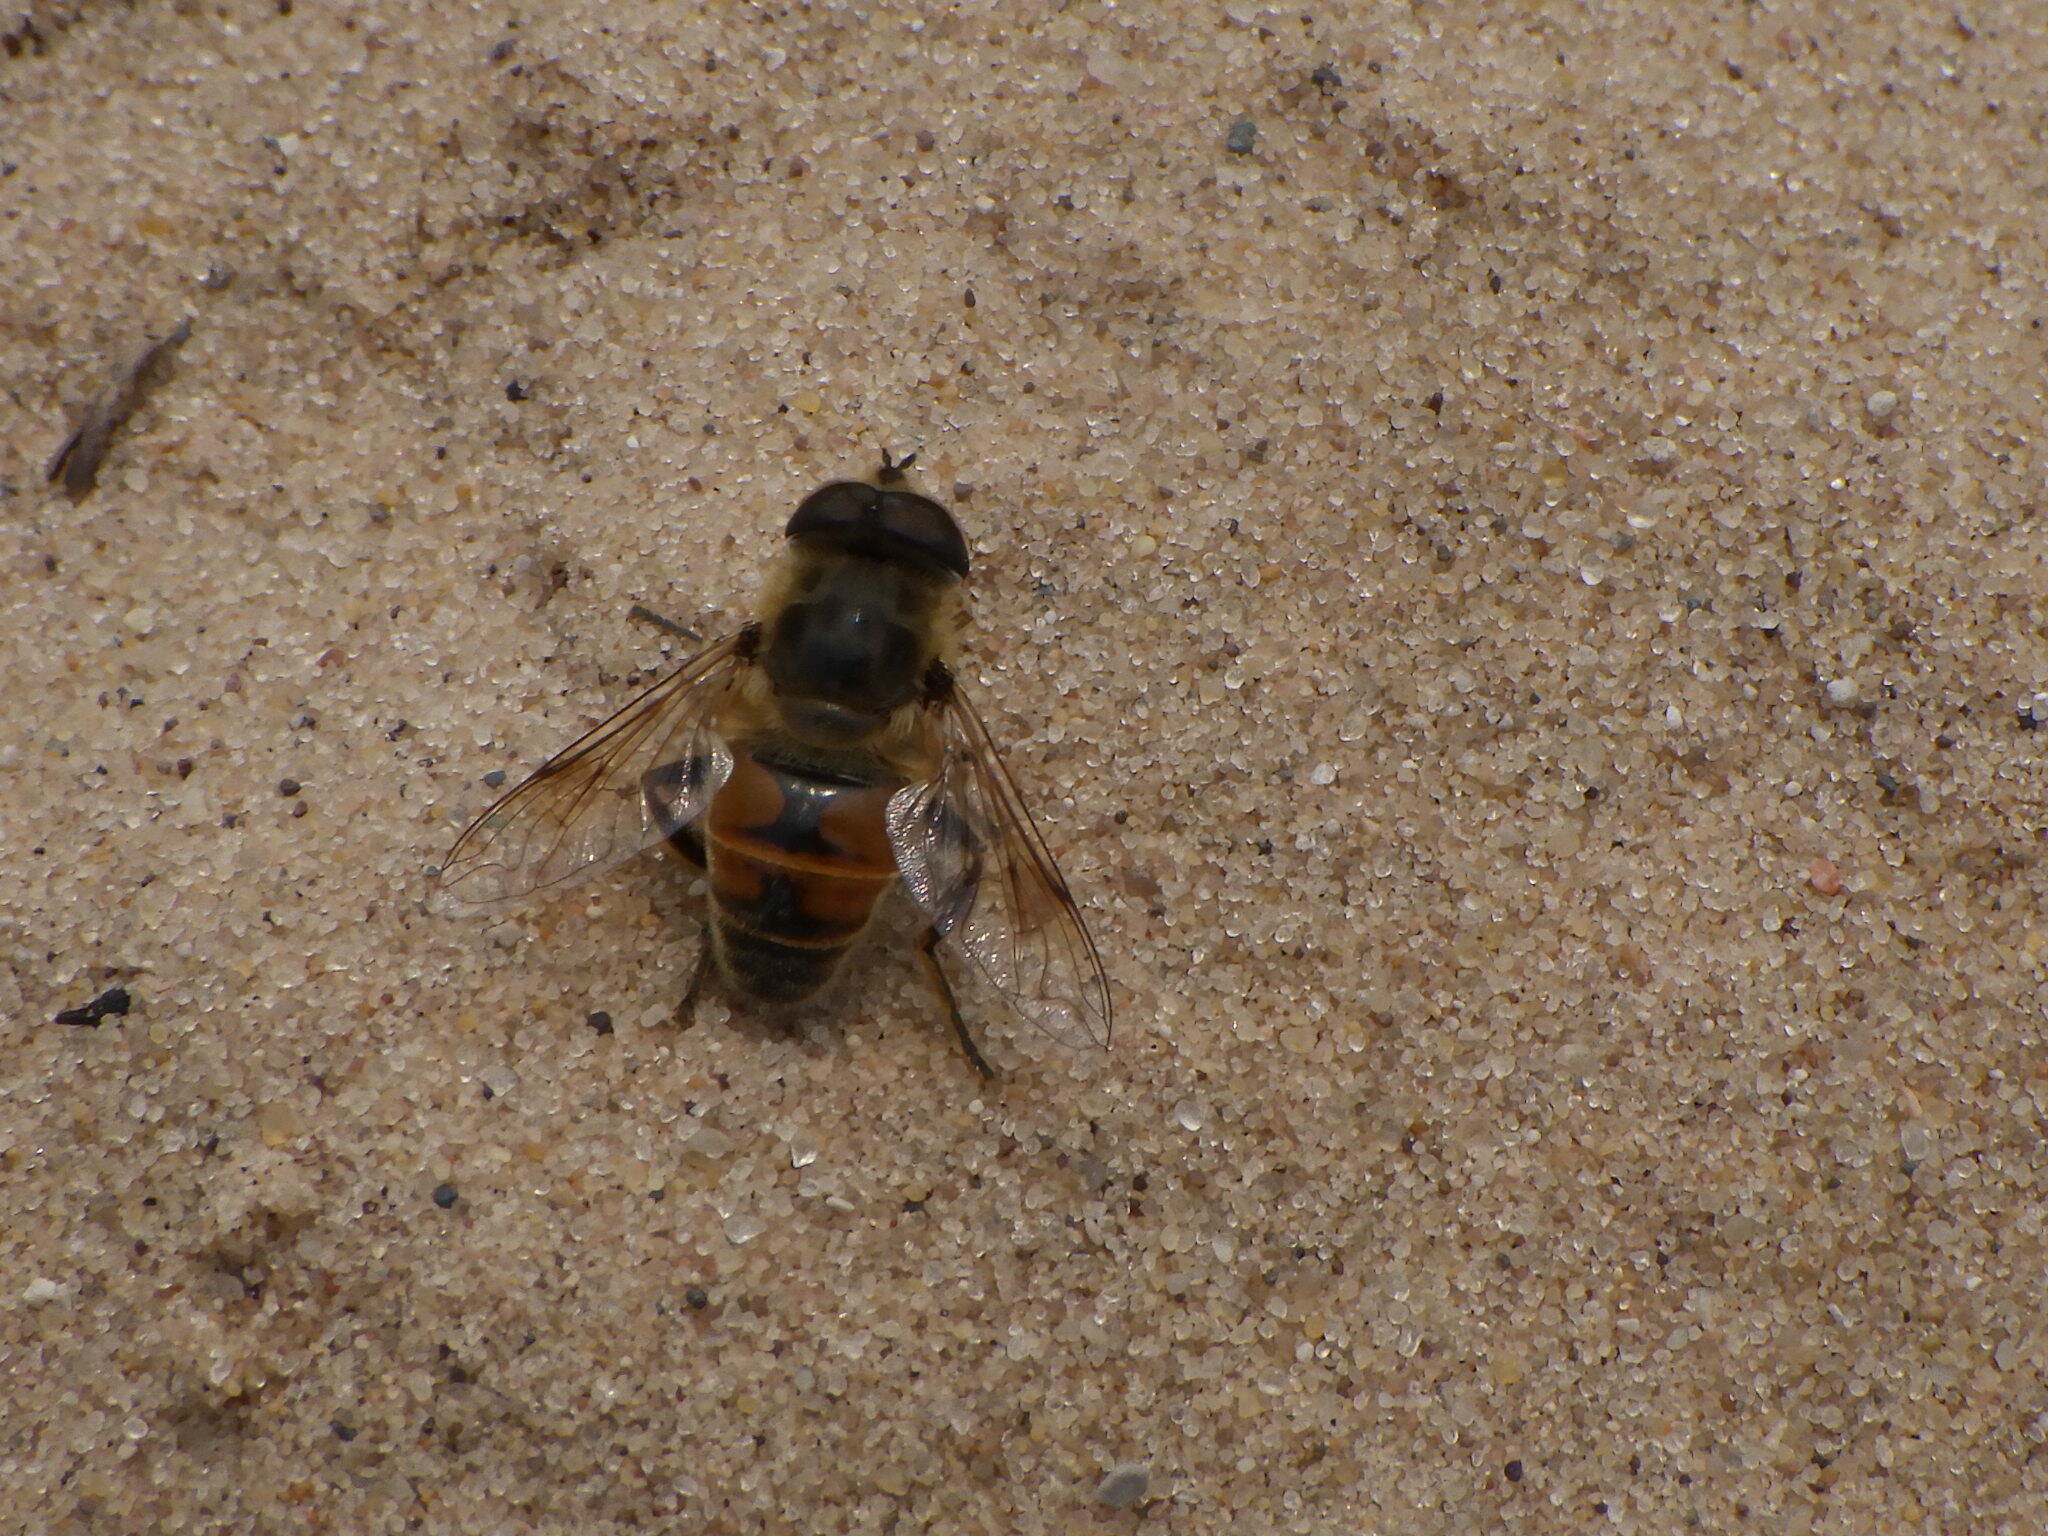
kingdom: Animalia
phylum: Arthropoda
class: Insecta
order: Diptera
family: Syrphidae
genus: Eristalis
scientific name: Eristalis tenax
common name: Drone fly
